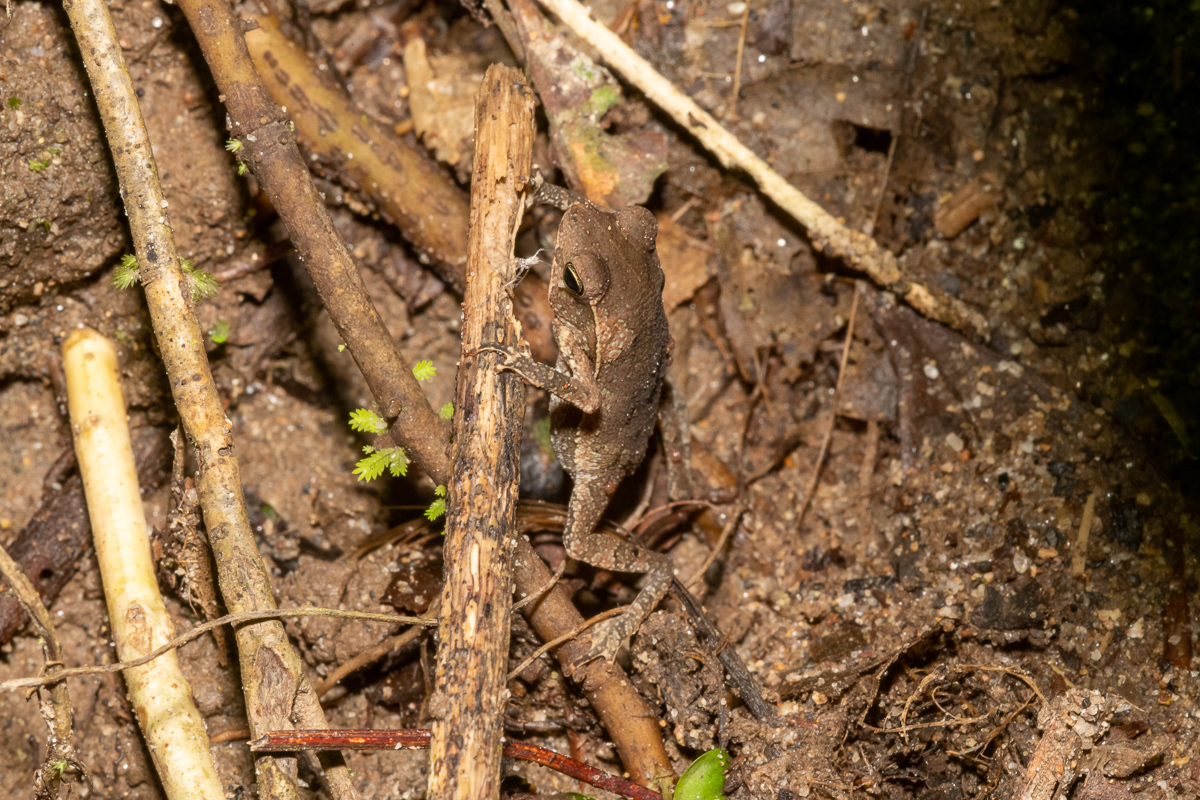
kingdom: Animalia
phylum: Chordata
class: Amphibia
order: Anura
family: Bufonidae
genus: Rhinella
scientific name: Rhinella margaritifera
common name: Mitred toad
